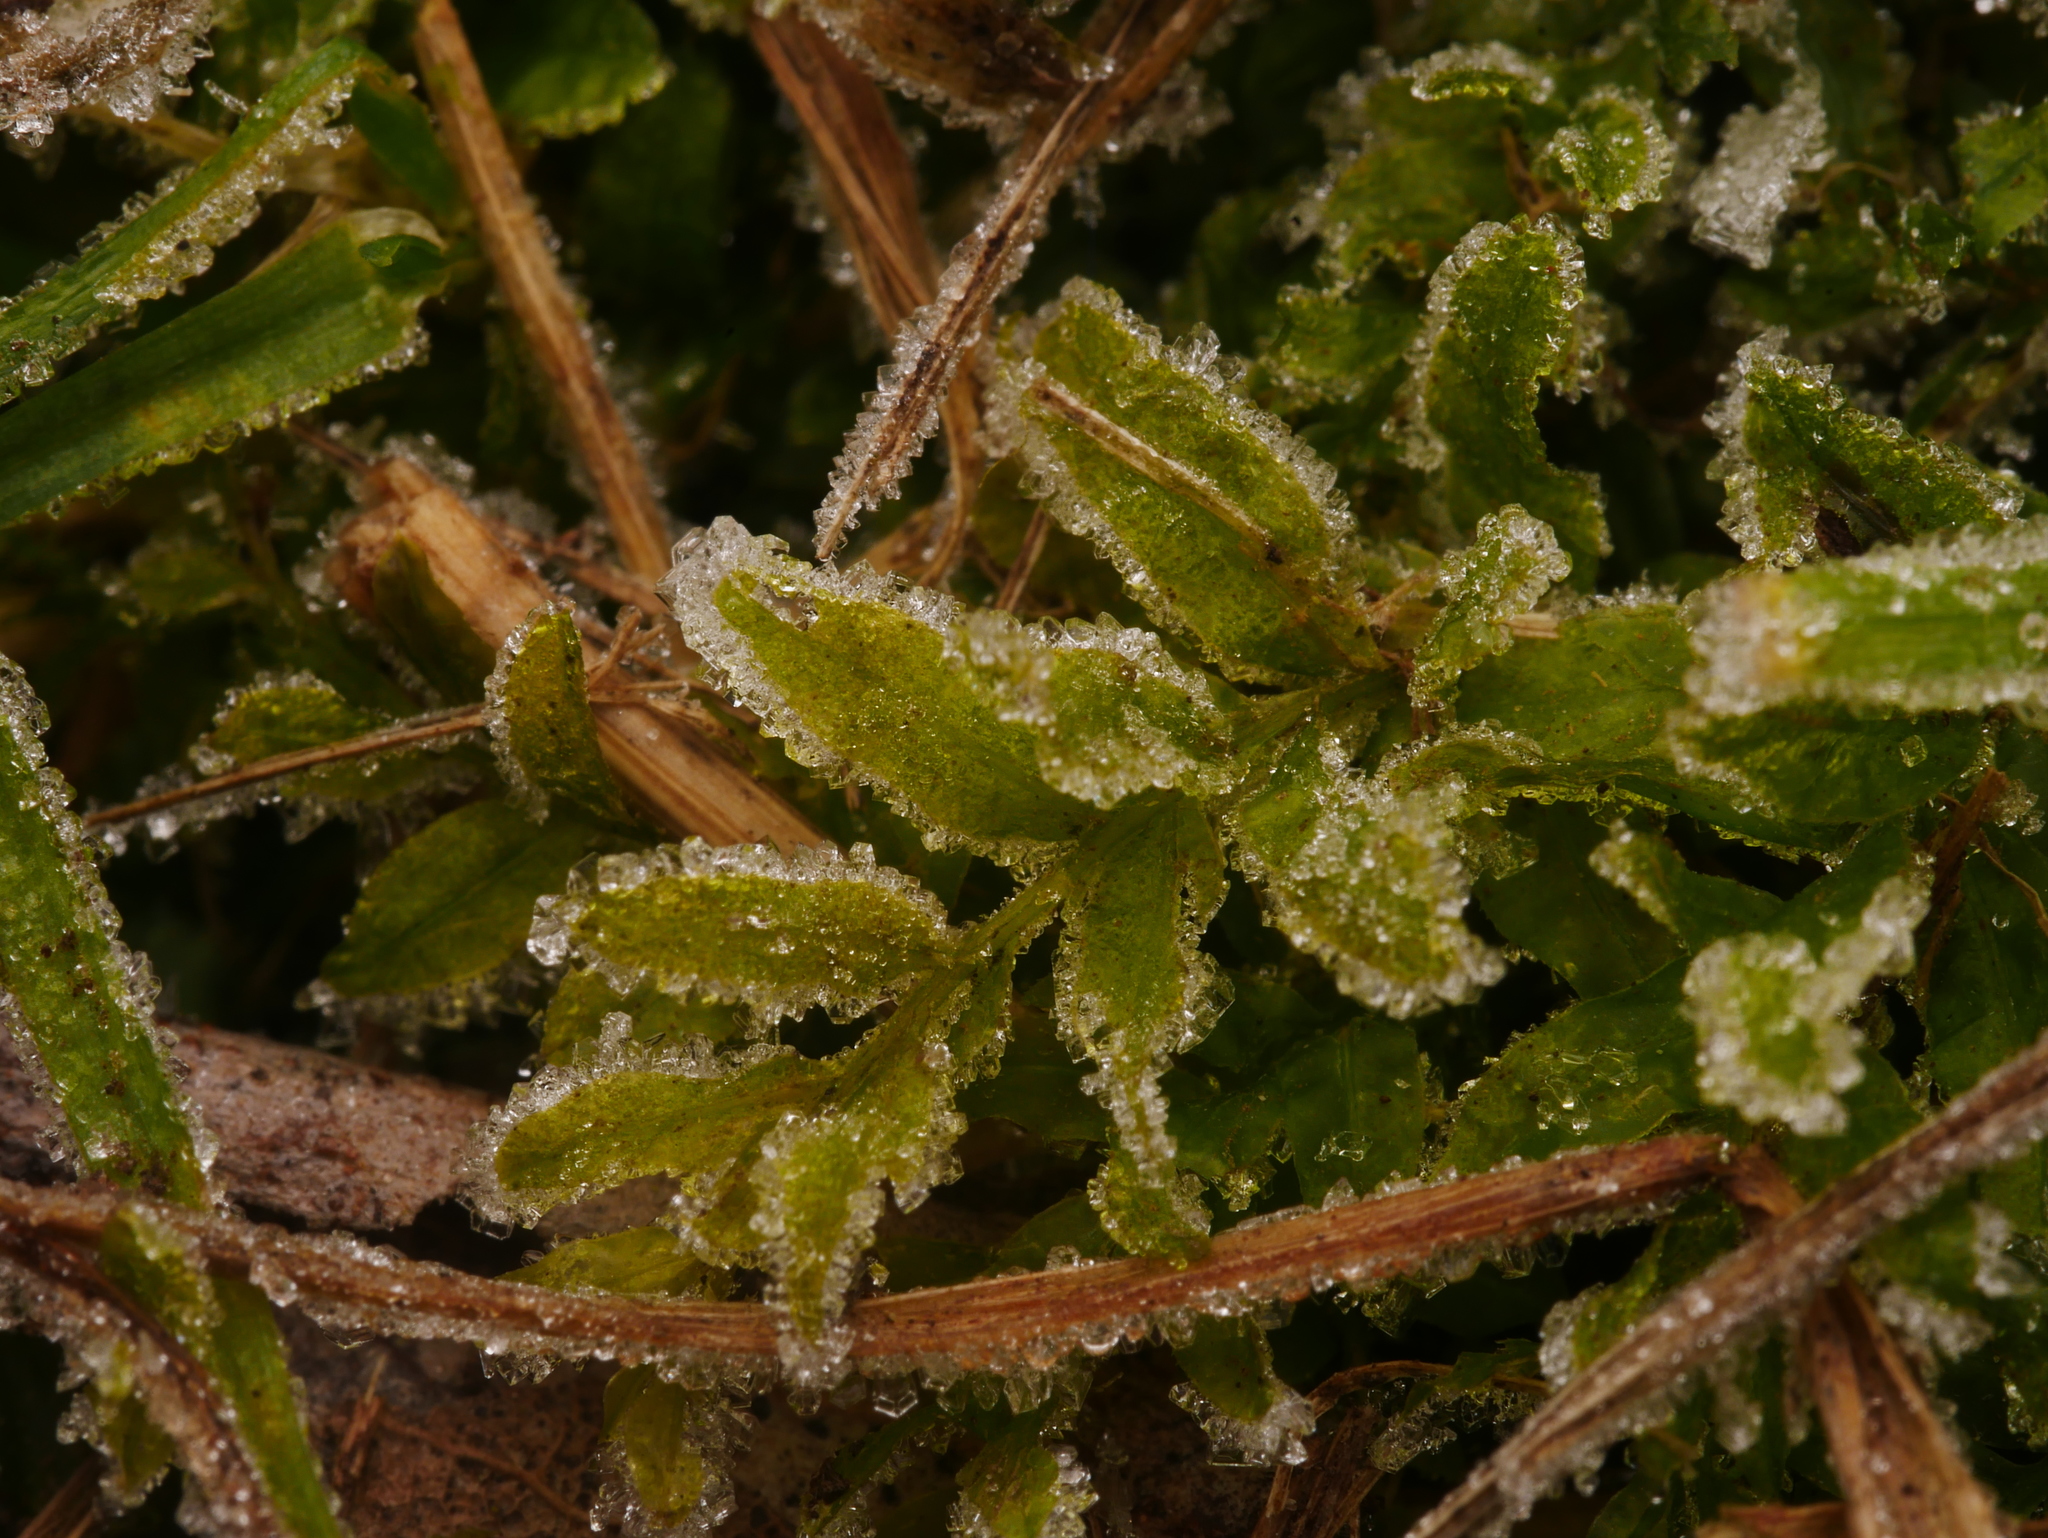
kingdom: Plantae
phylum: Bryophyta
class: Bryopsida
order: Bryales
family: Mniaceae
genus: Plagiomnium
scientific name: Plagiomnium undulatum
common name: Hart's-tongue thyme-moss
